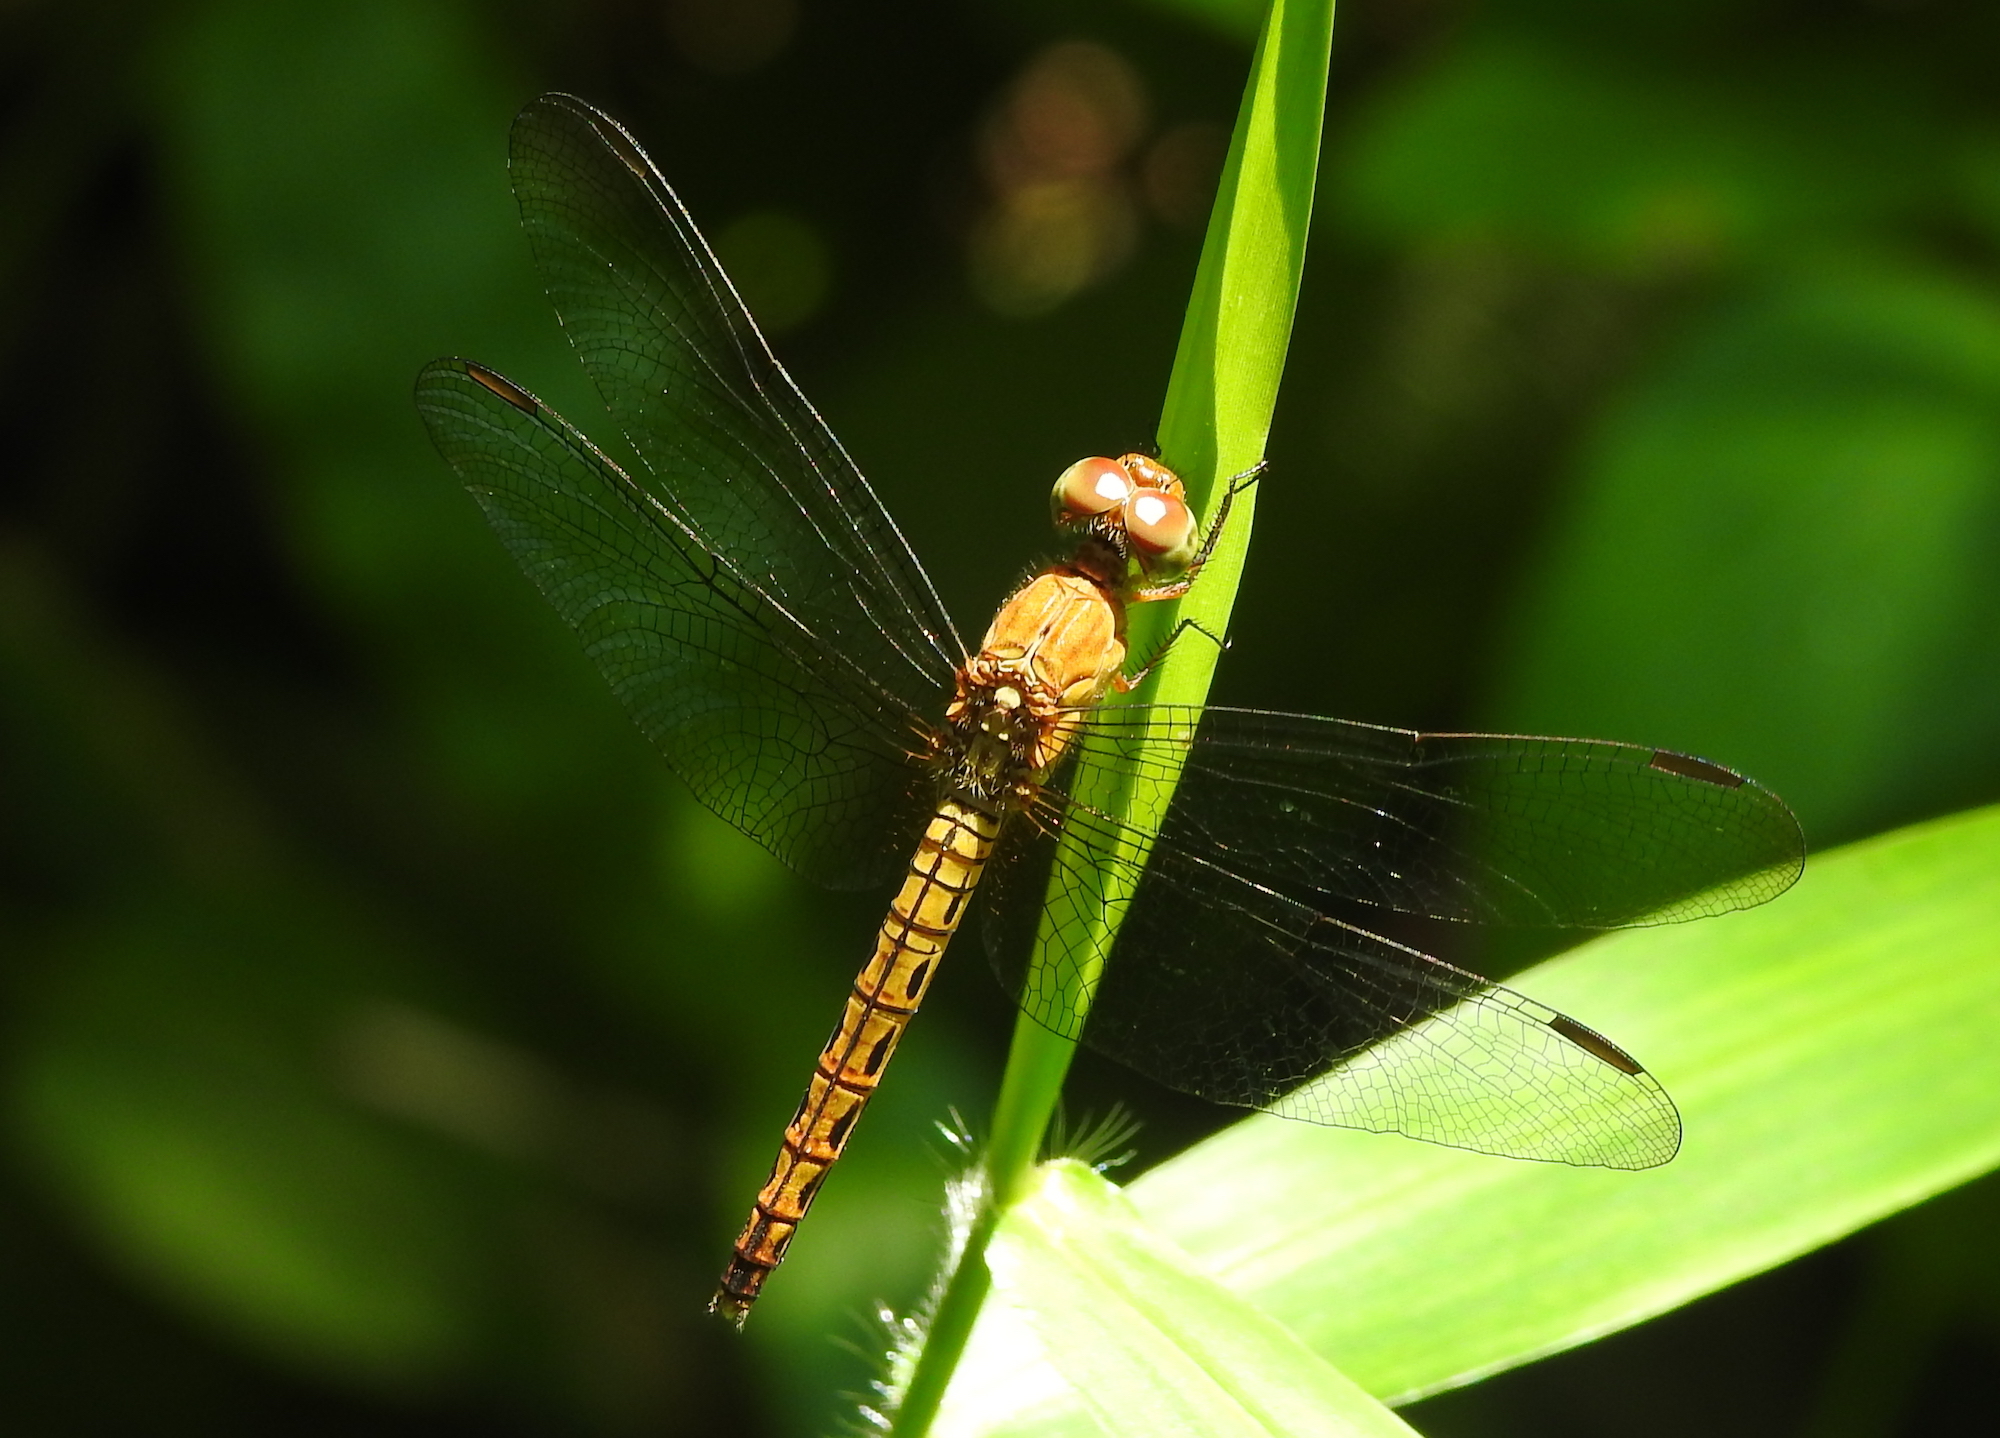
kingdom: Animalia
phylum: Arthropoda
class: Insecta
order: Odonata
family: Libellulidae
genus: Neurothemis
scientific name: Neurothemis fluctuans
